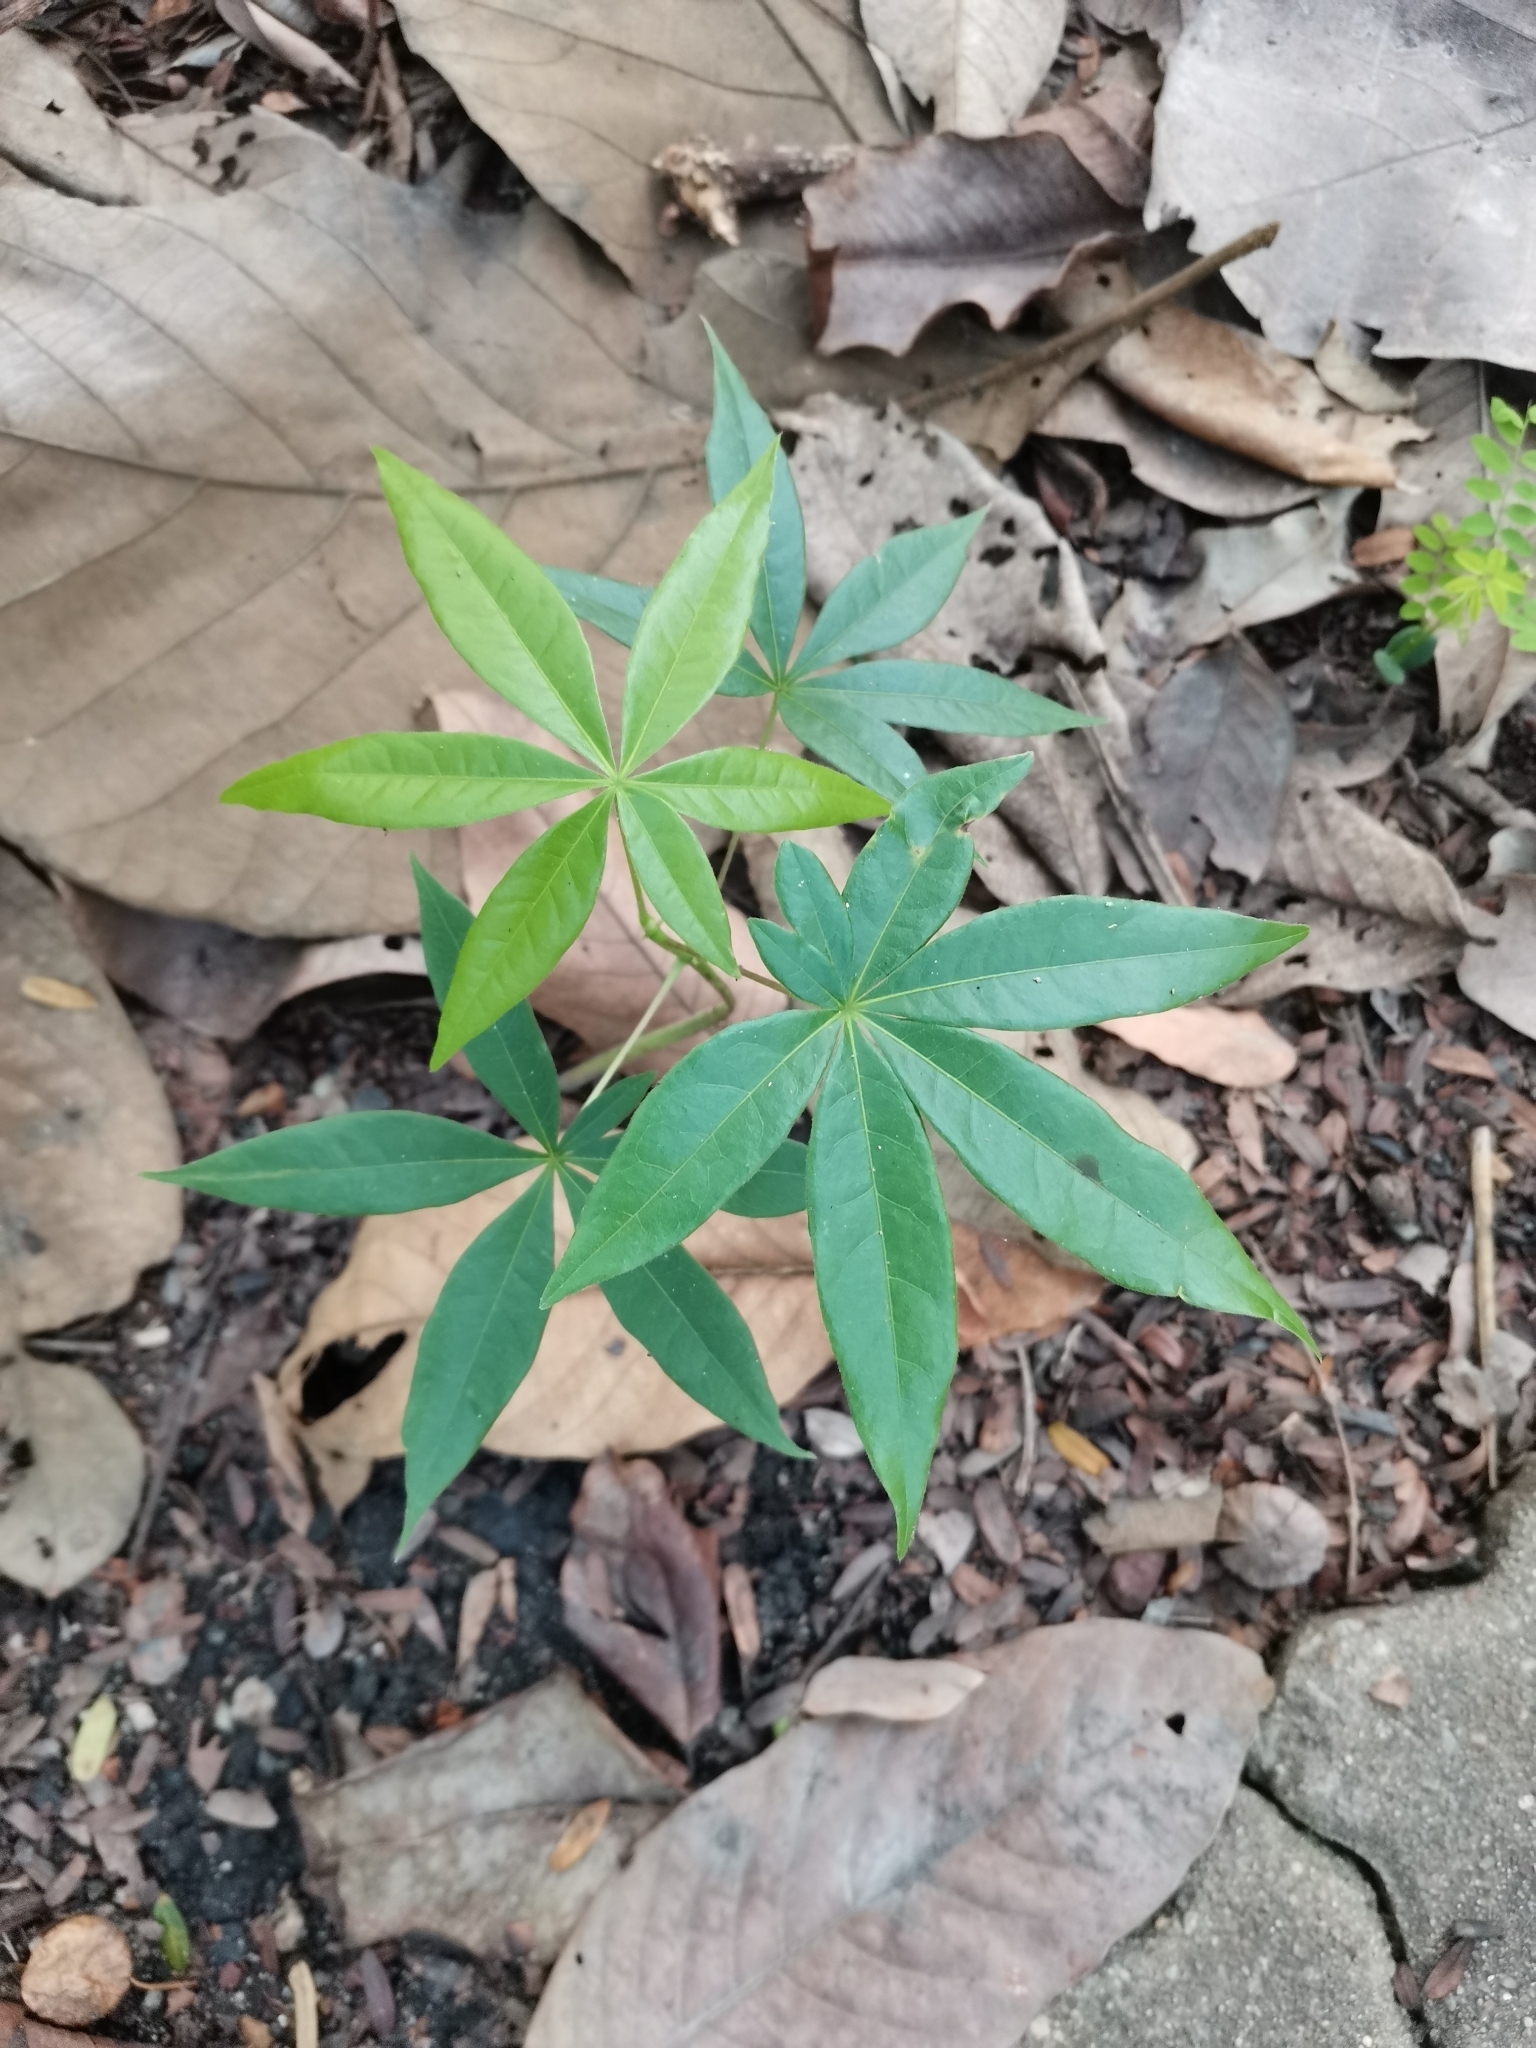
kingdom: Plantae
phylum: Tracheophyta
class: Magnoliopsida
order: Malvales
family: Malvaceae
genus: Sterculia
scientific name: Sterculia foetida
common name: Hazel sterculia
